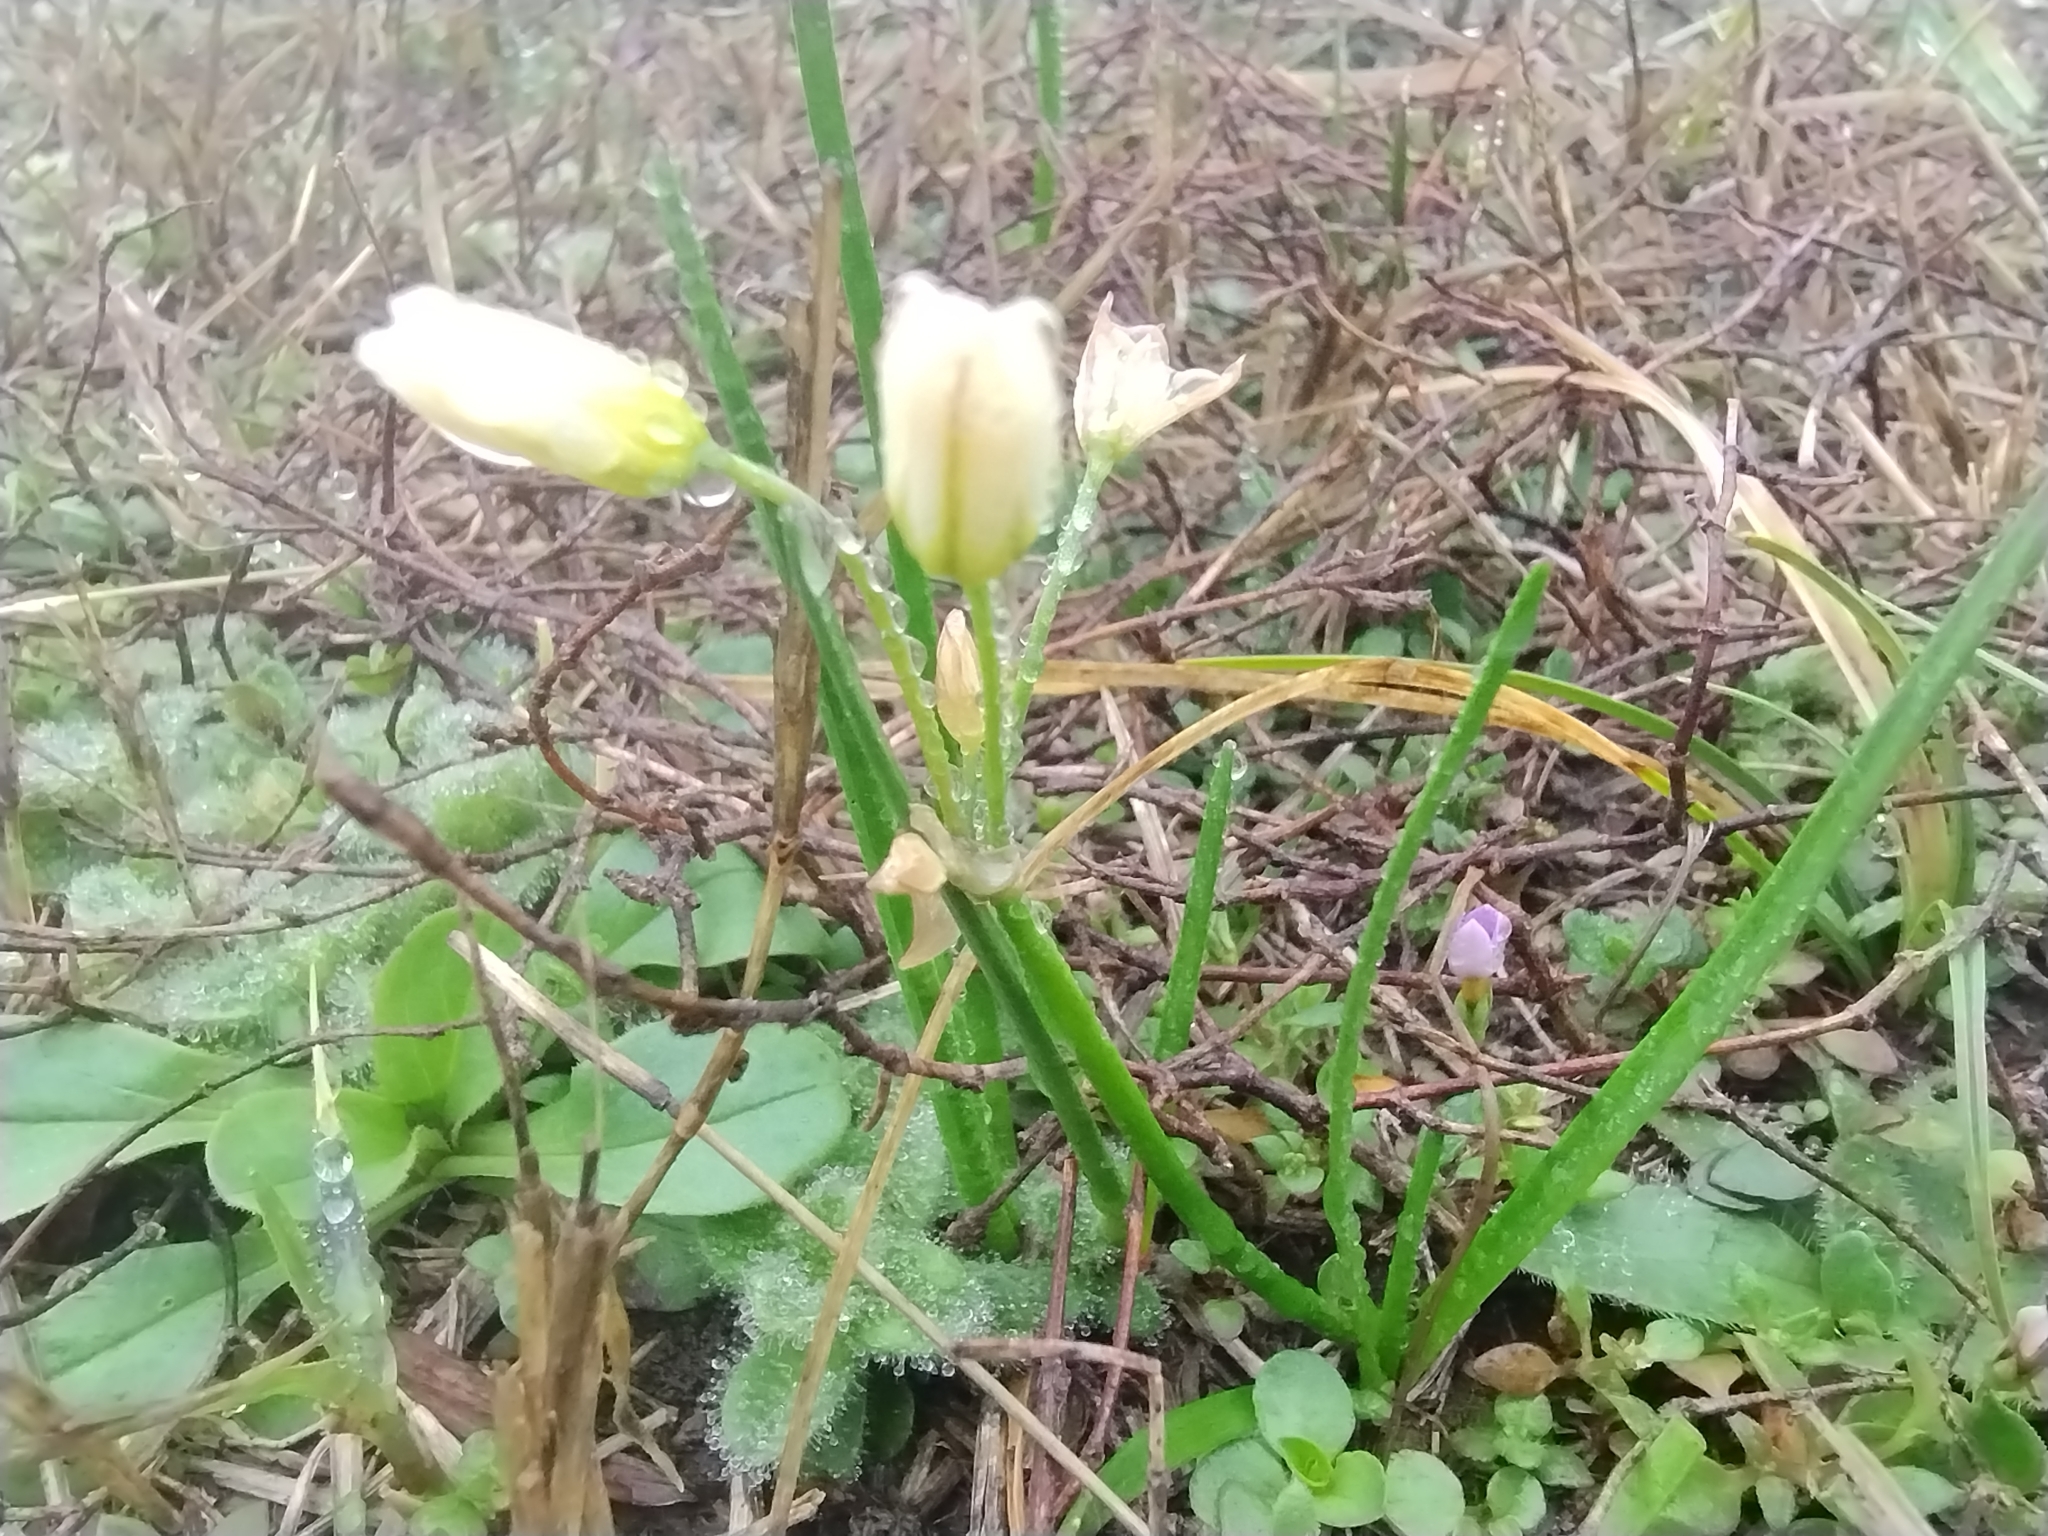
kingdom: Plantae
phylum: Tracheophyta
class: Liliopsida
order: Asparagales
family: Amaryllidaceae
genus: Nothoscordum
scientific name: Nothoscordum bivalve
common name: Crow-poison
